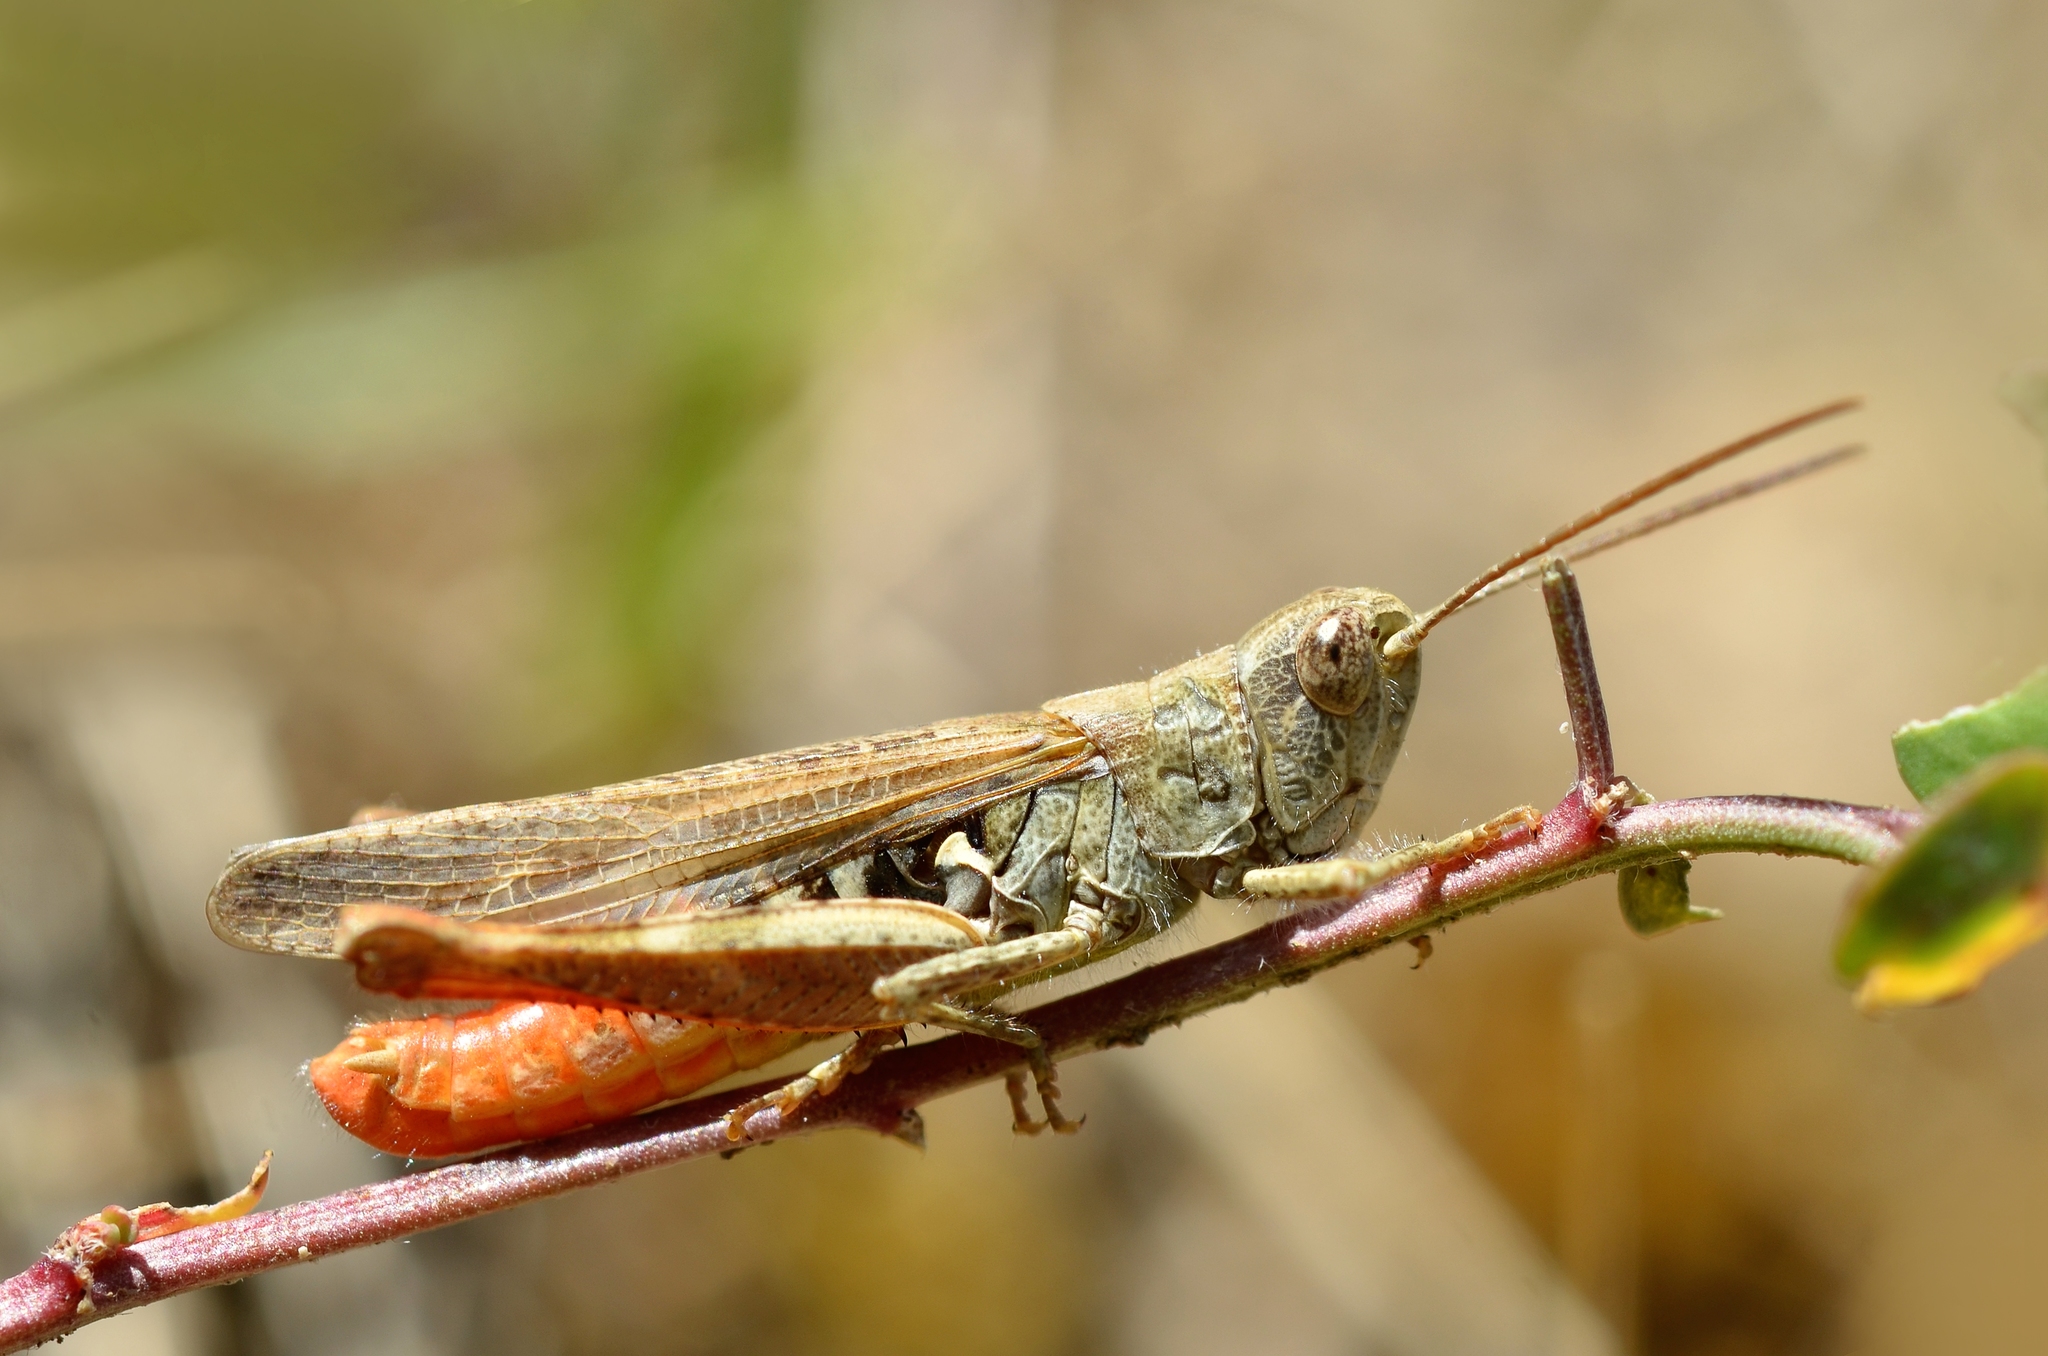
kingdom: Animalia
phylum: Arthropoda
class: Insecta
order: Orthoptera
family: Acrididae
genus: Chorthippus
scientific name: Chorthippus mollis
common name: Lesser field grasshopper
